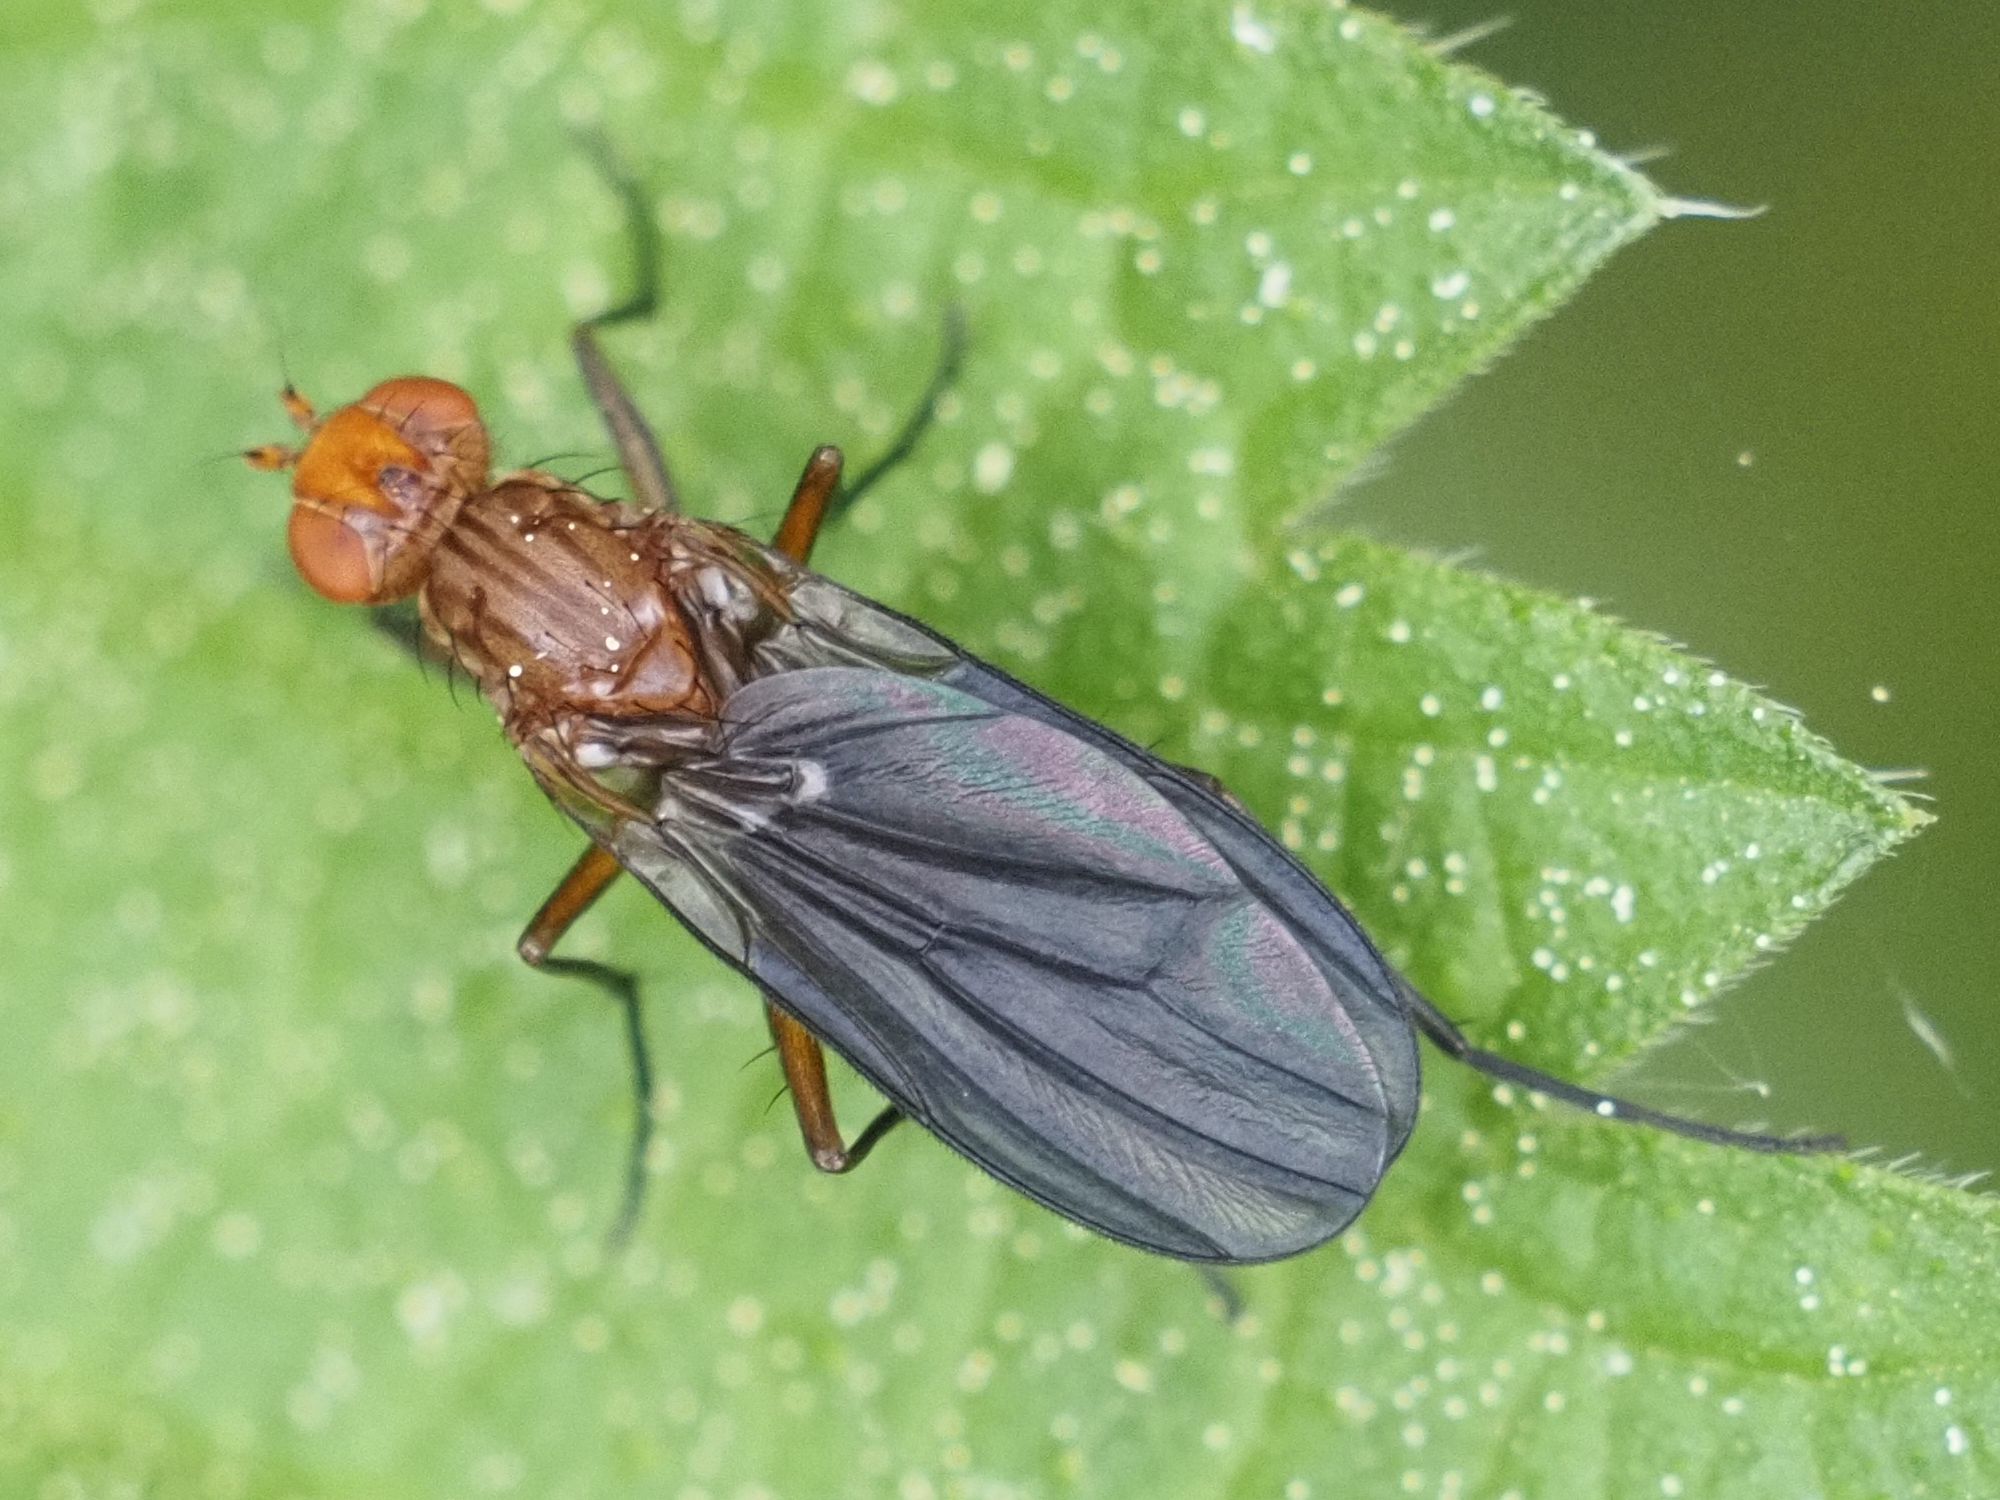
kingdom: Animalia
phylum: Arthropoda
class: Insecta
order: Diptera
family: Phaeomyiidae
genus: Pelidnoptera
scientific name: Pelidnoptera leptiformis
